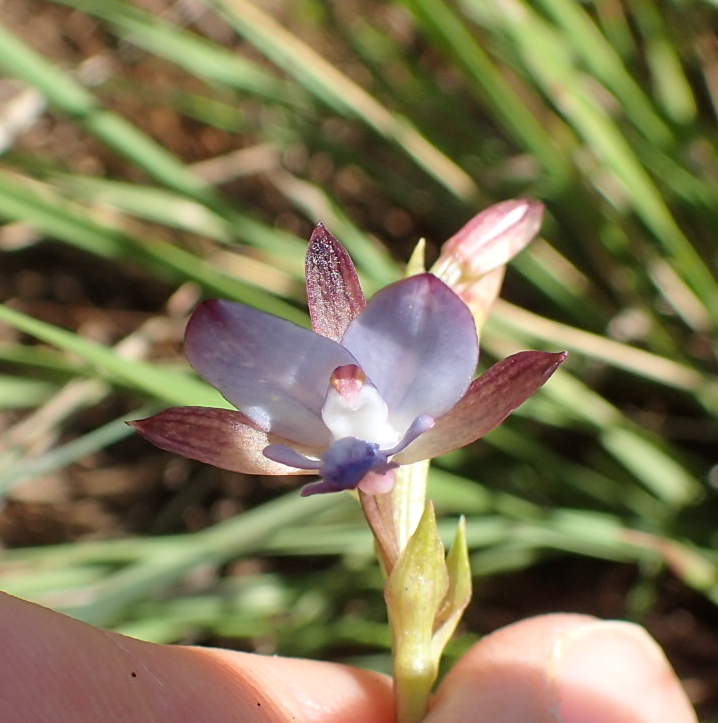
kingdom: Plantae
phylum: Tracheophyta
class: Liliopsida
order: Asparagales
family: Orchidaceae
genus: Eulophia
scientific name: Eulophia zeyheriana
